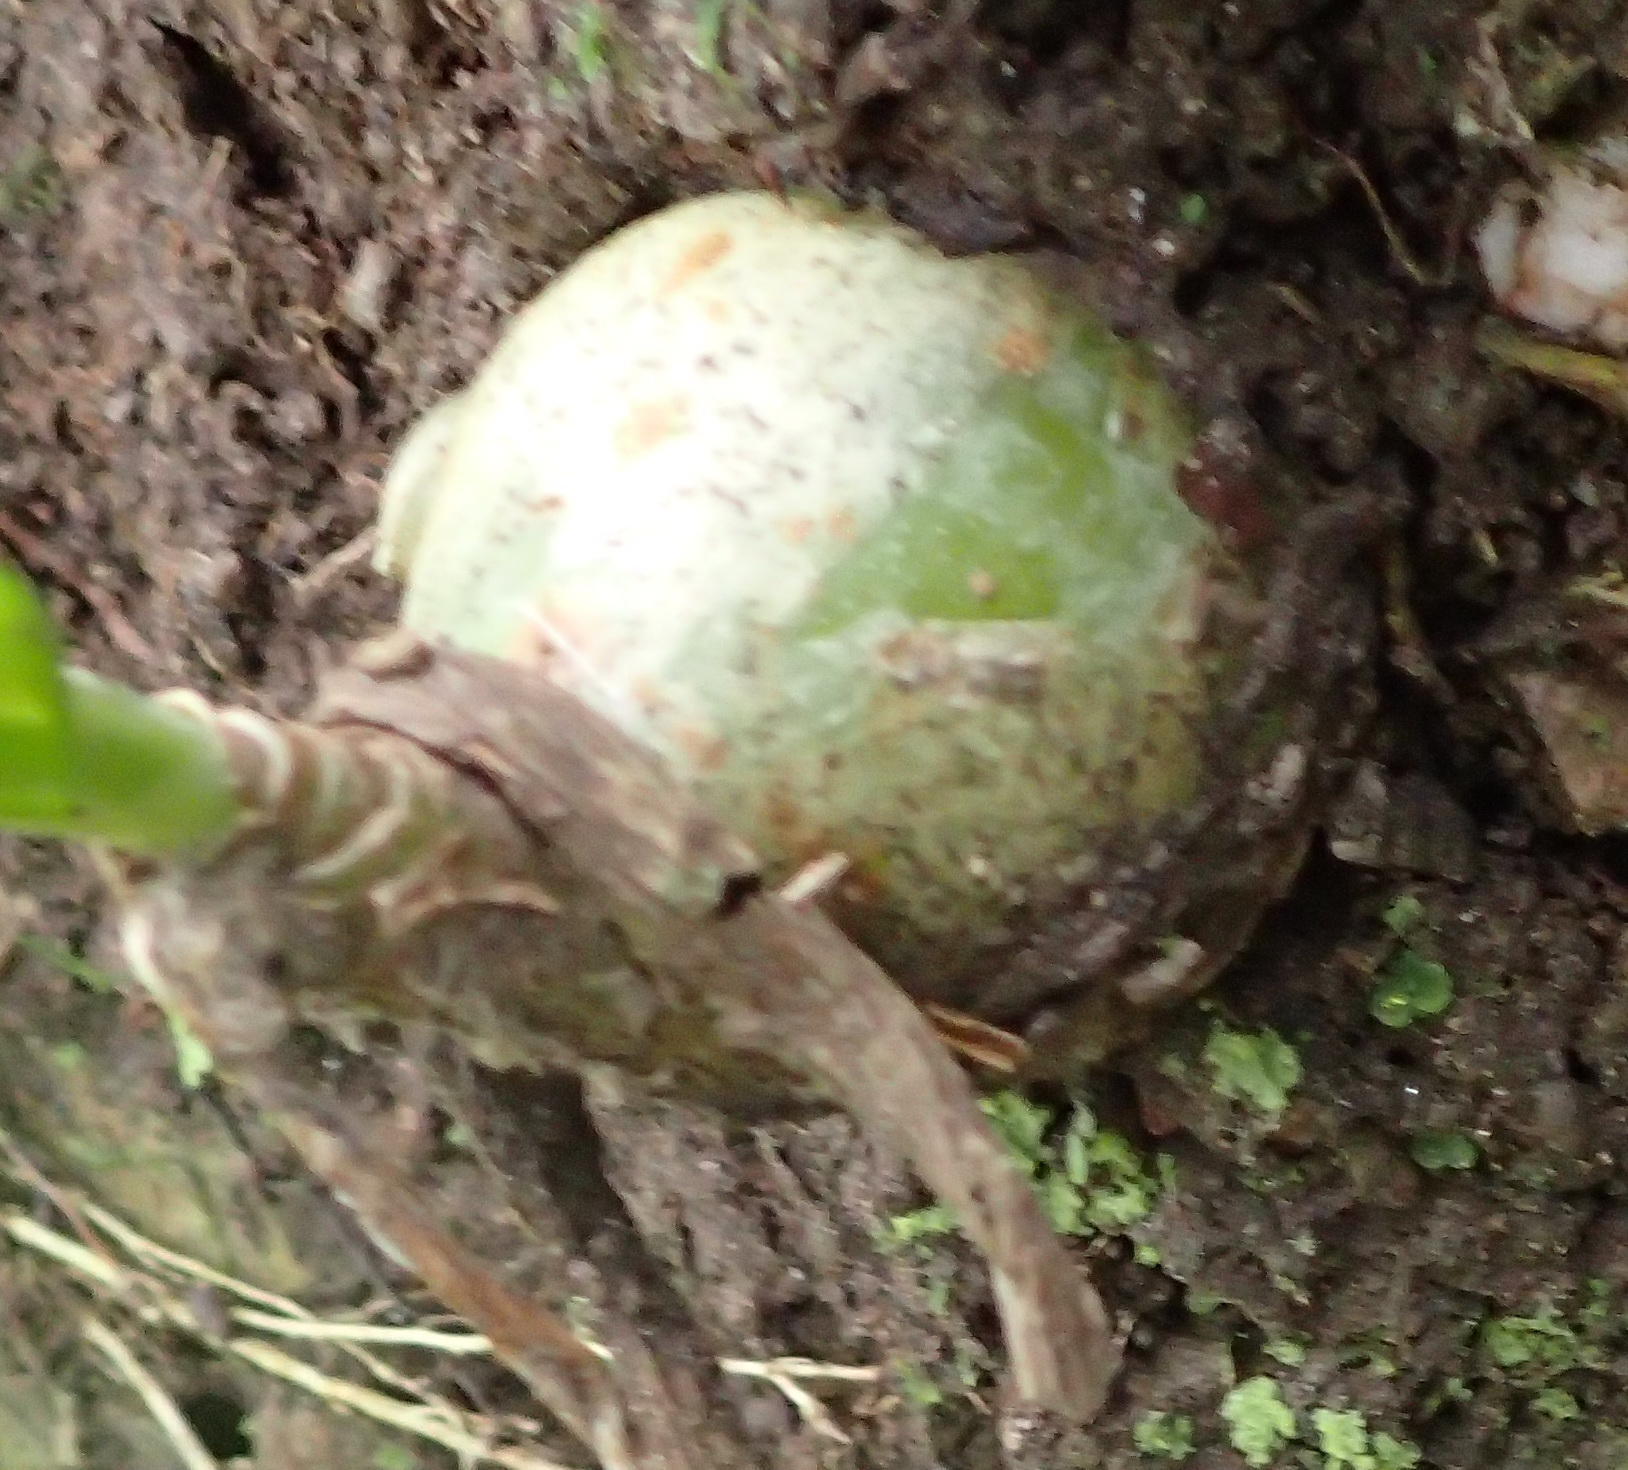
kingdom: Plantae
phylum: Tracheophyta
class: Liliopsida
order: Asparagales
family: Asparagaceae
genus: Albuca
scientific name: Albuca bracteata
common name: Sea-onion
